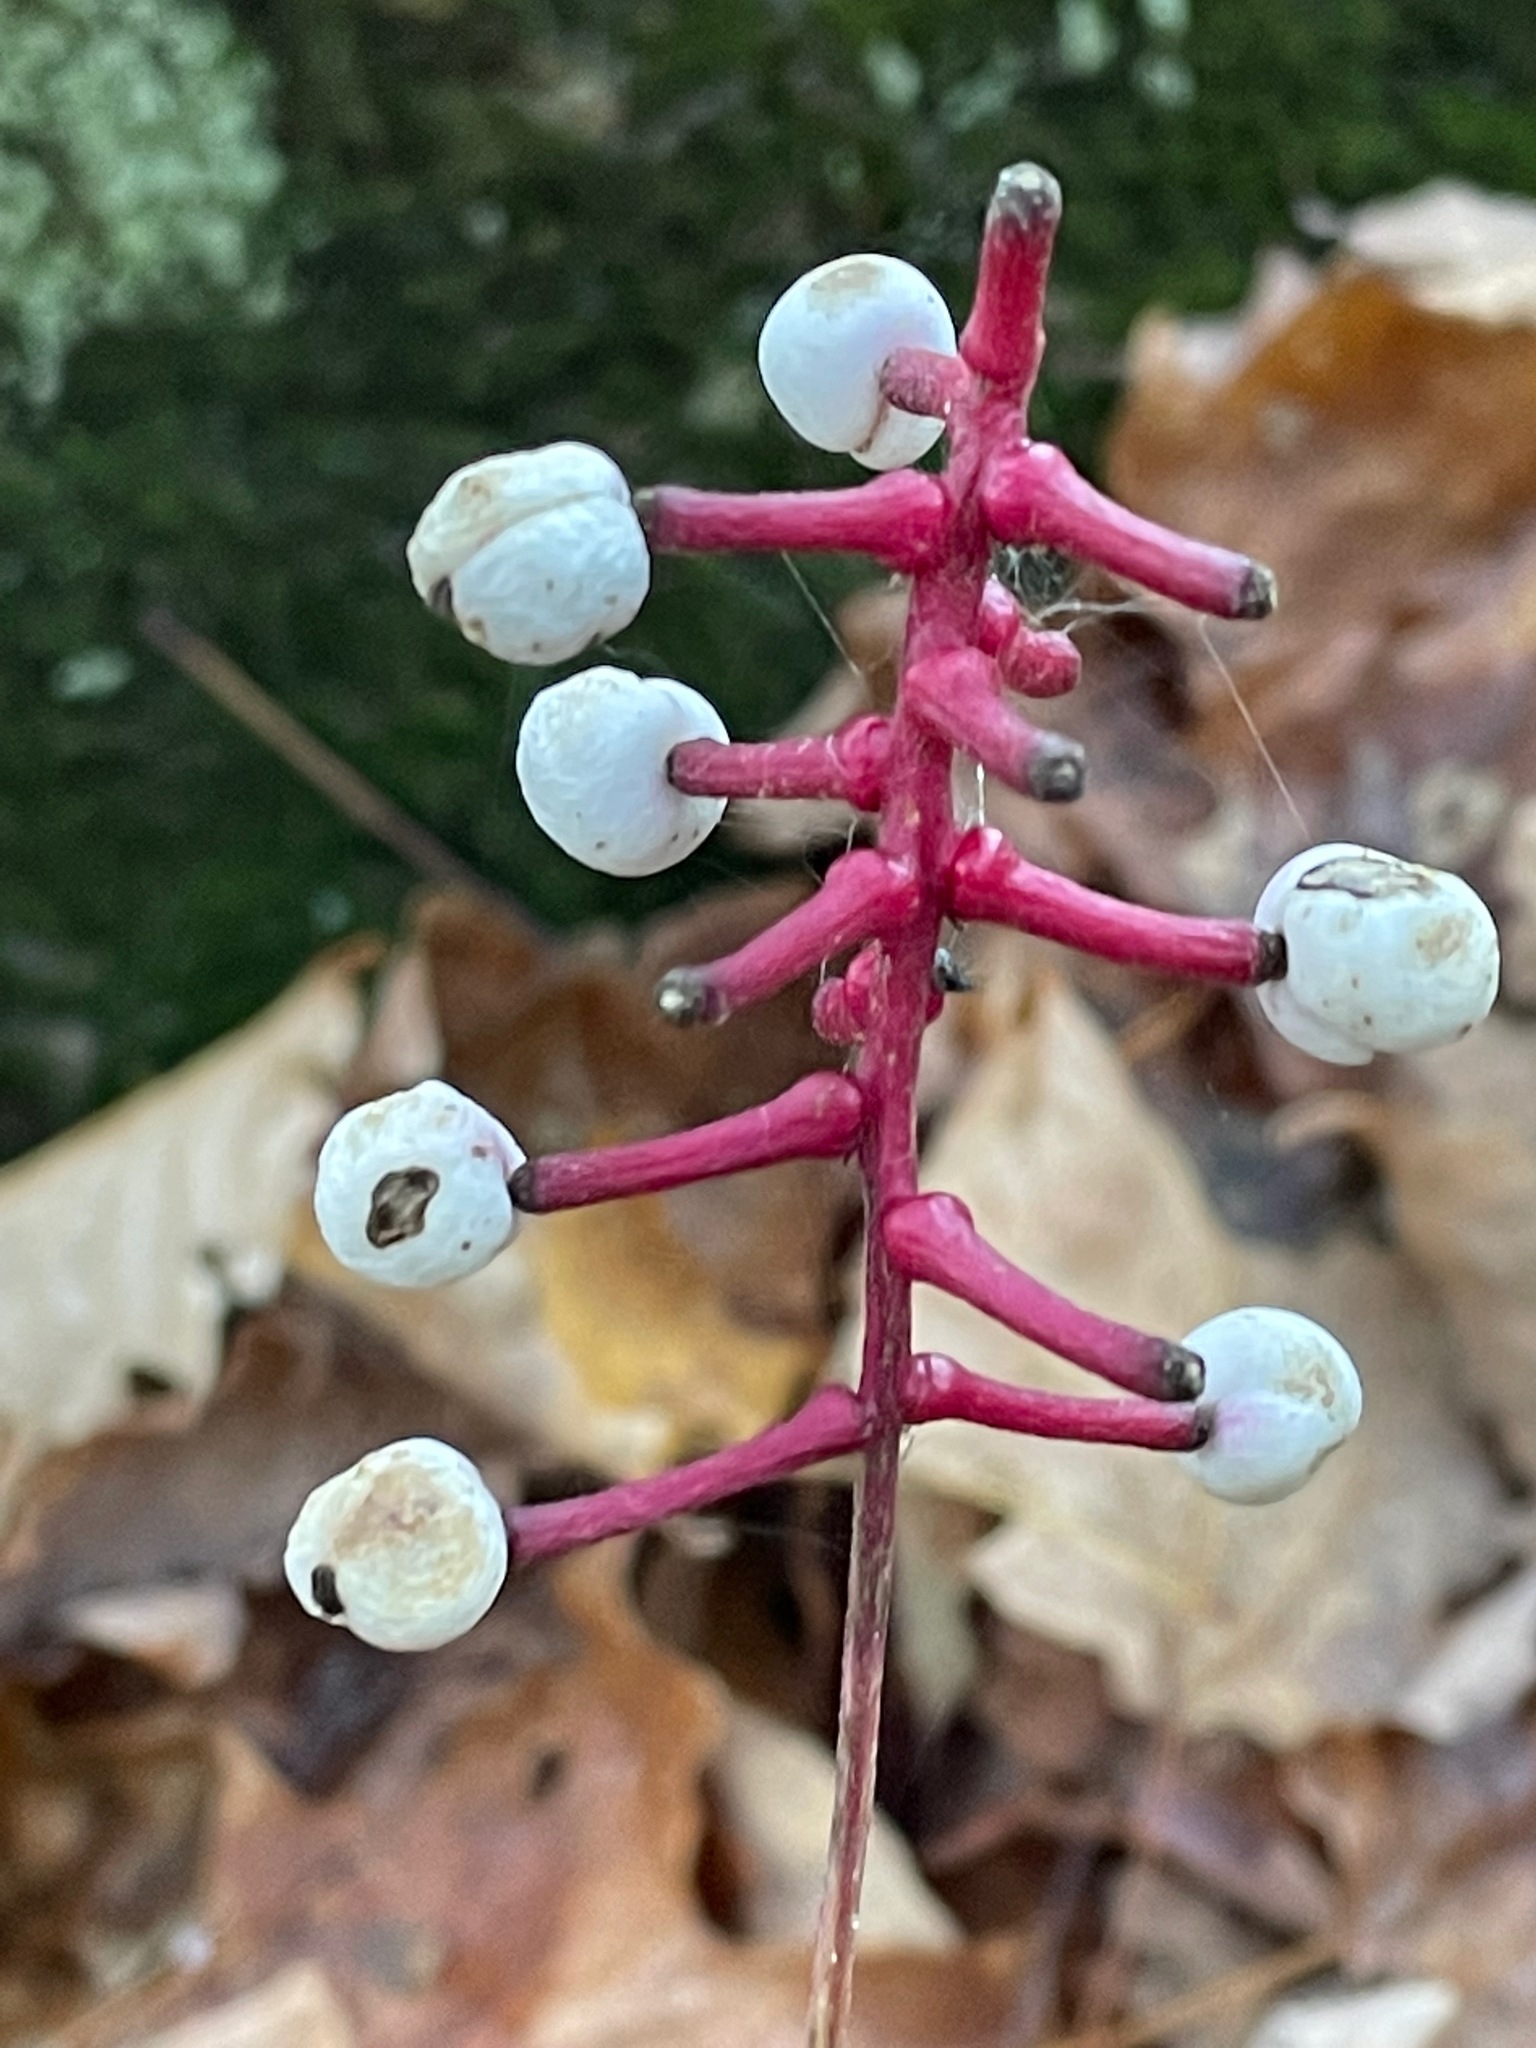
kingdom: Plantae
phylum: Tracheophyta
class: Magnoliopsida
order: Ranunculales
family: Ranunculaceae
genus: Actaea
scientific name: Actaea pachypoda
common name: Doll's-eyes
